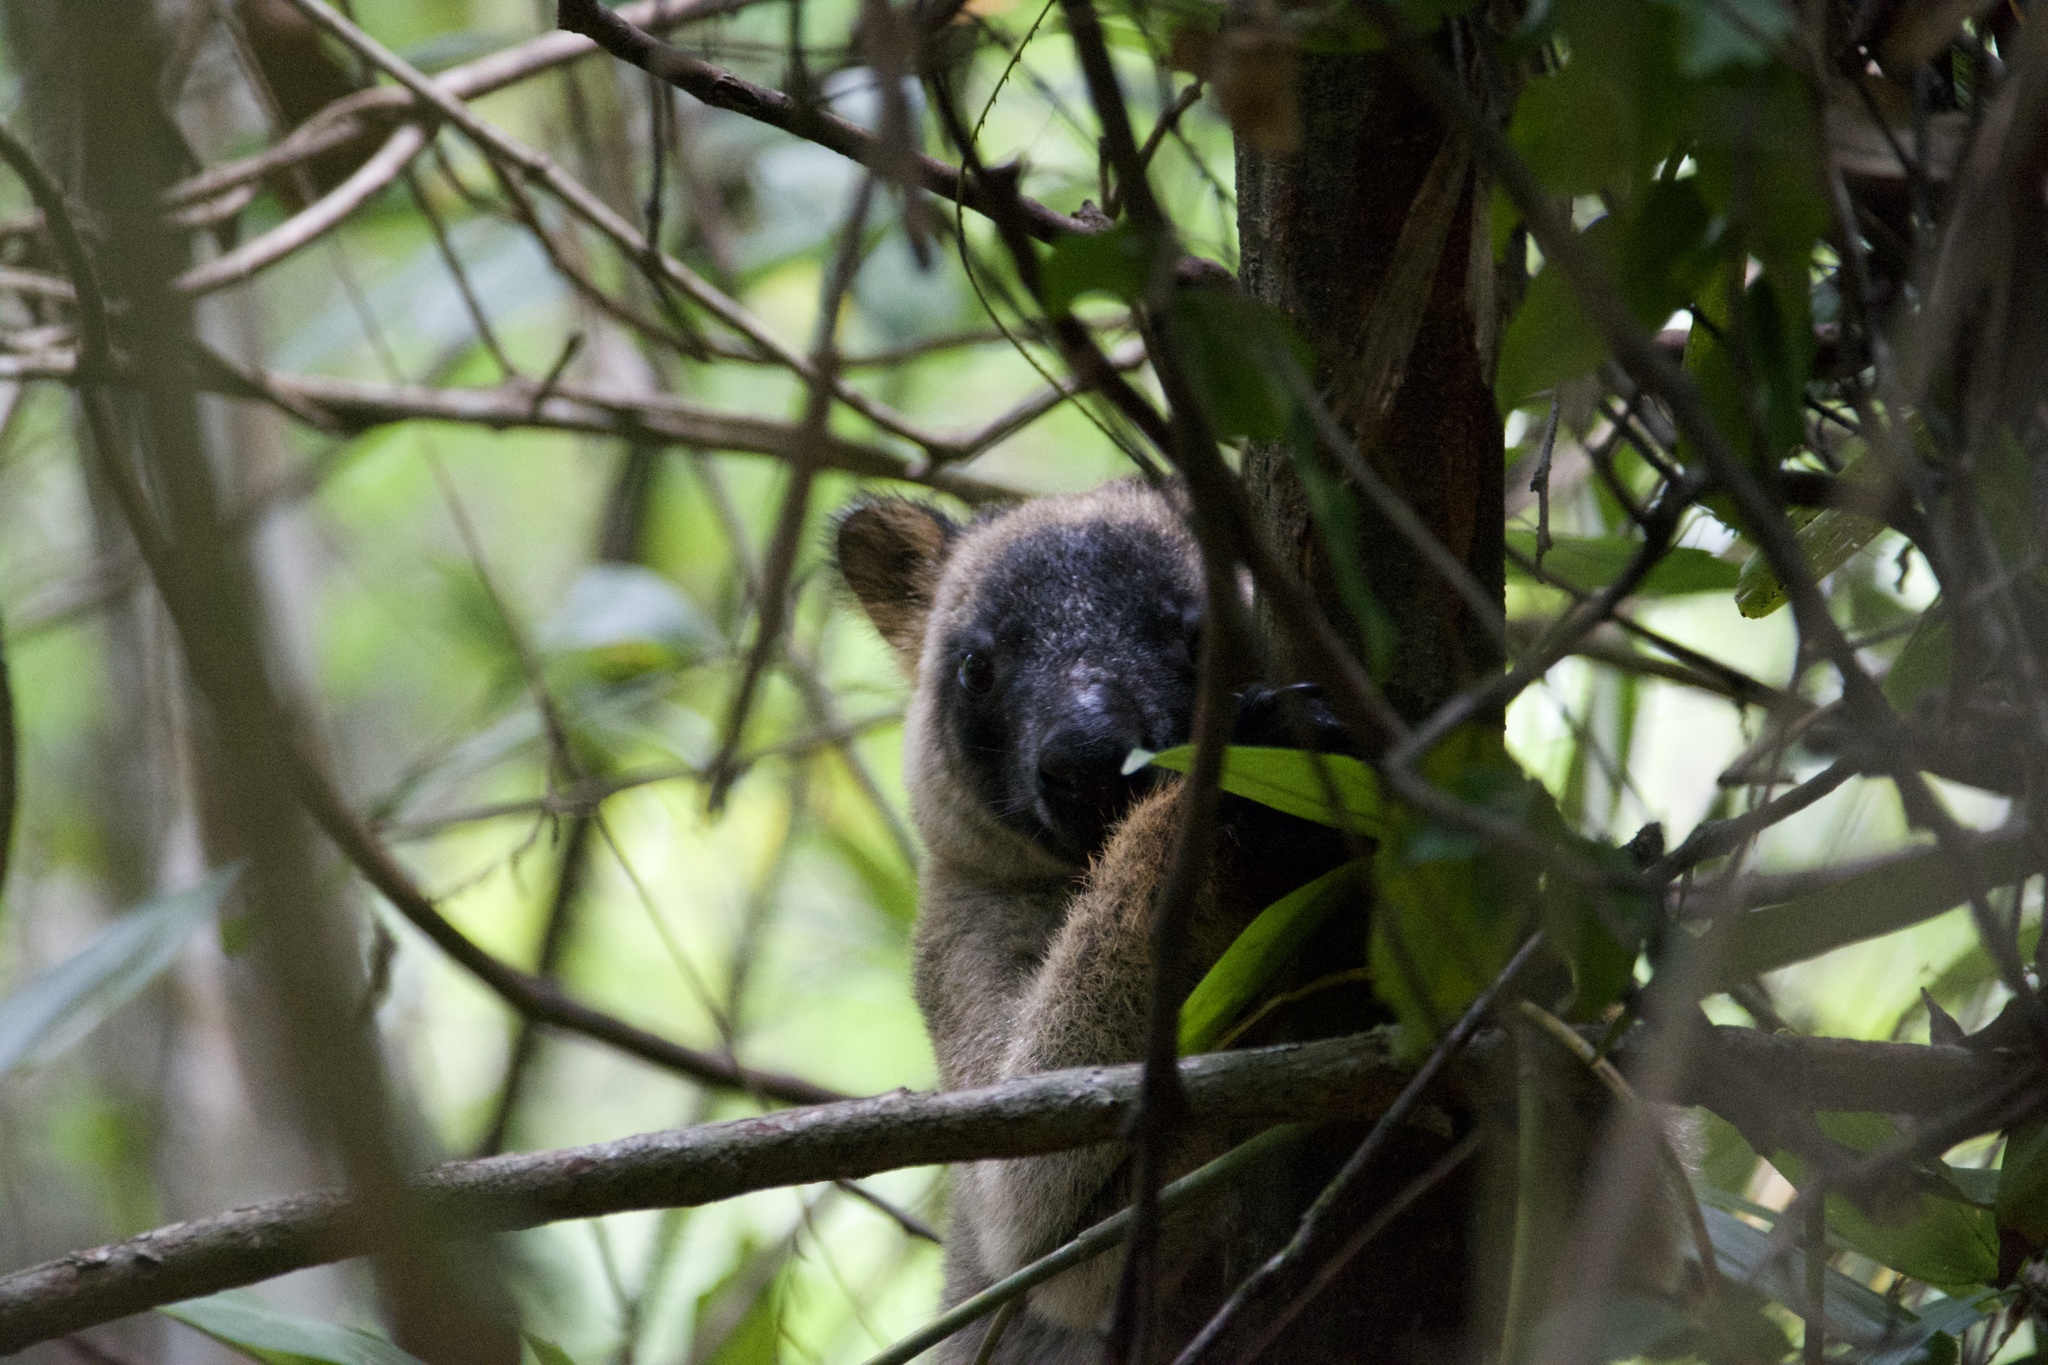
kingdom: Animalia
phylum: Chordata
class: Mammalia
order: Diprotodontia
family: Macropodidae
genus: Dendrolagus
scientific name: Dendrolagus lumholtzi
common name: Lumholtz's tree kangaroo
